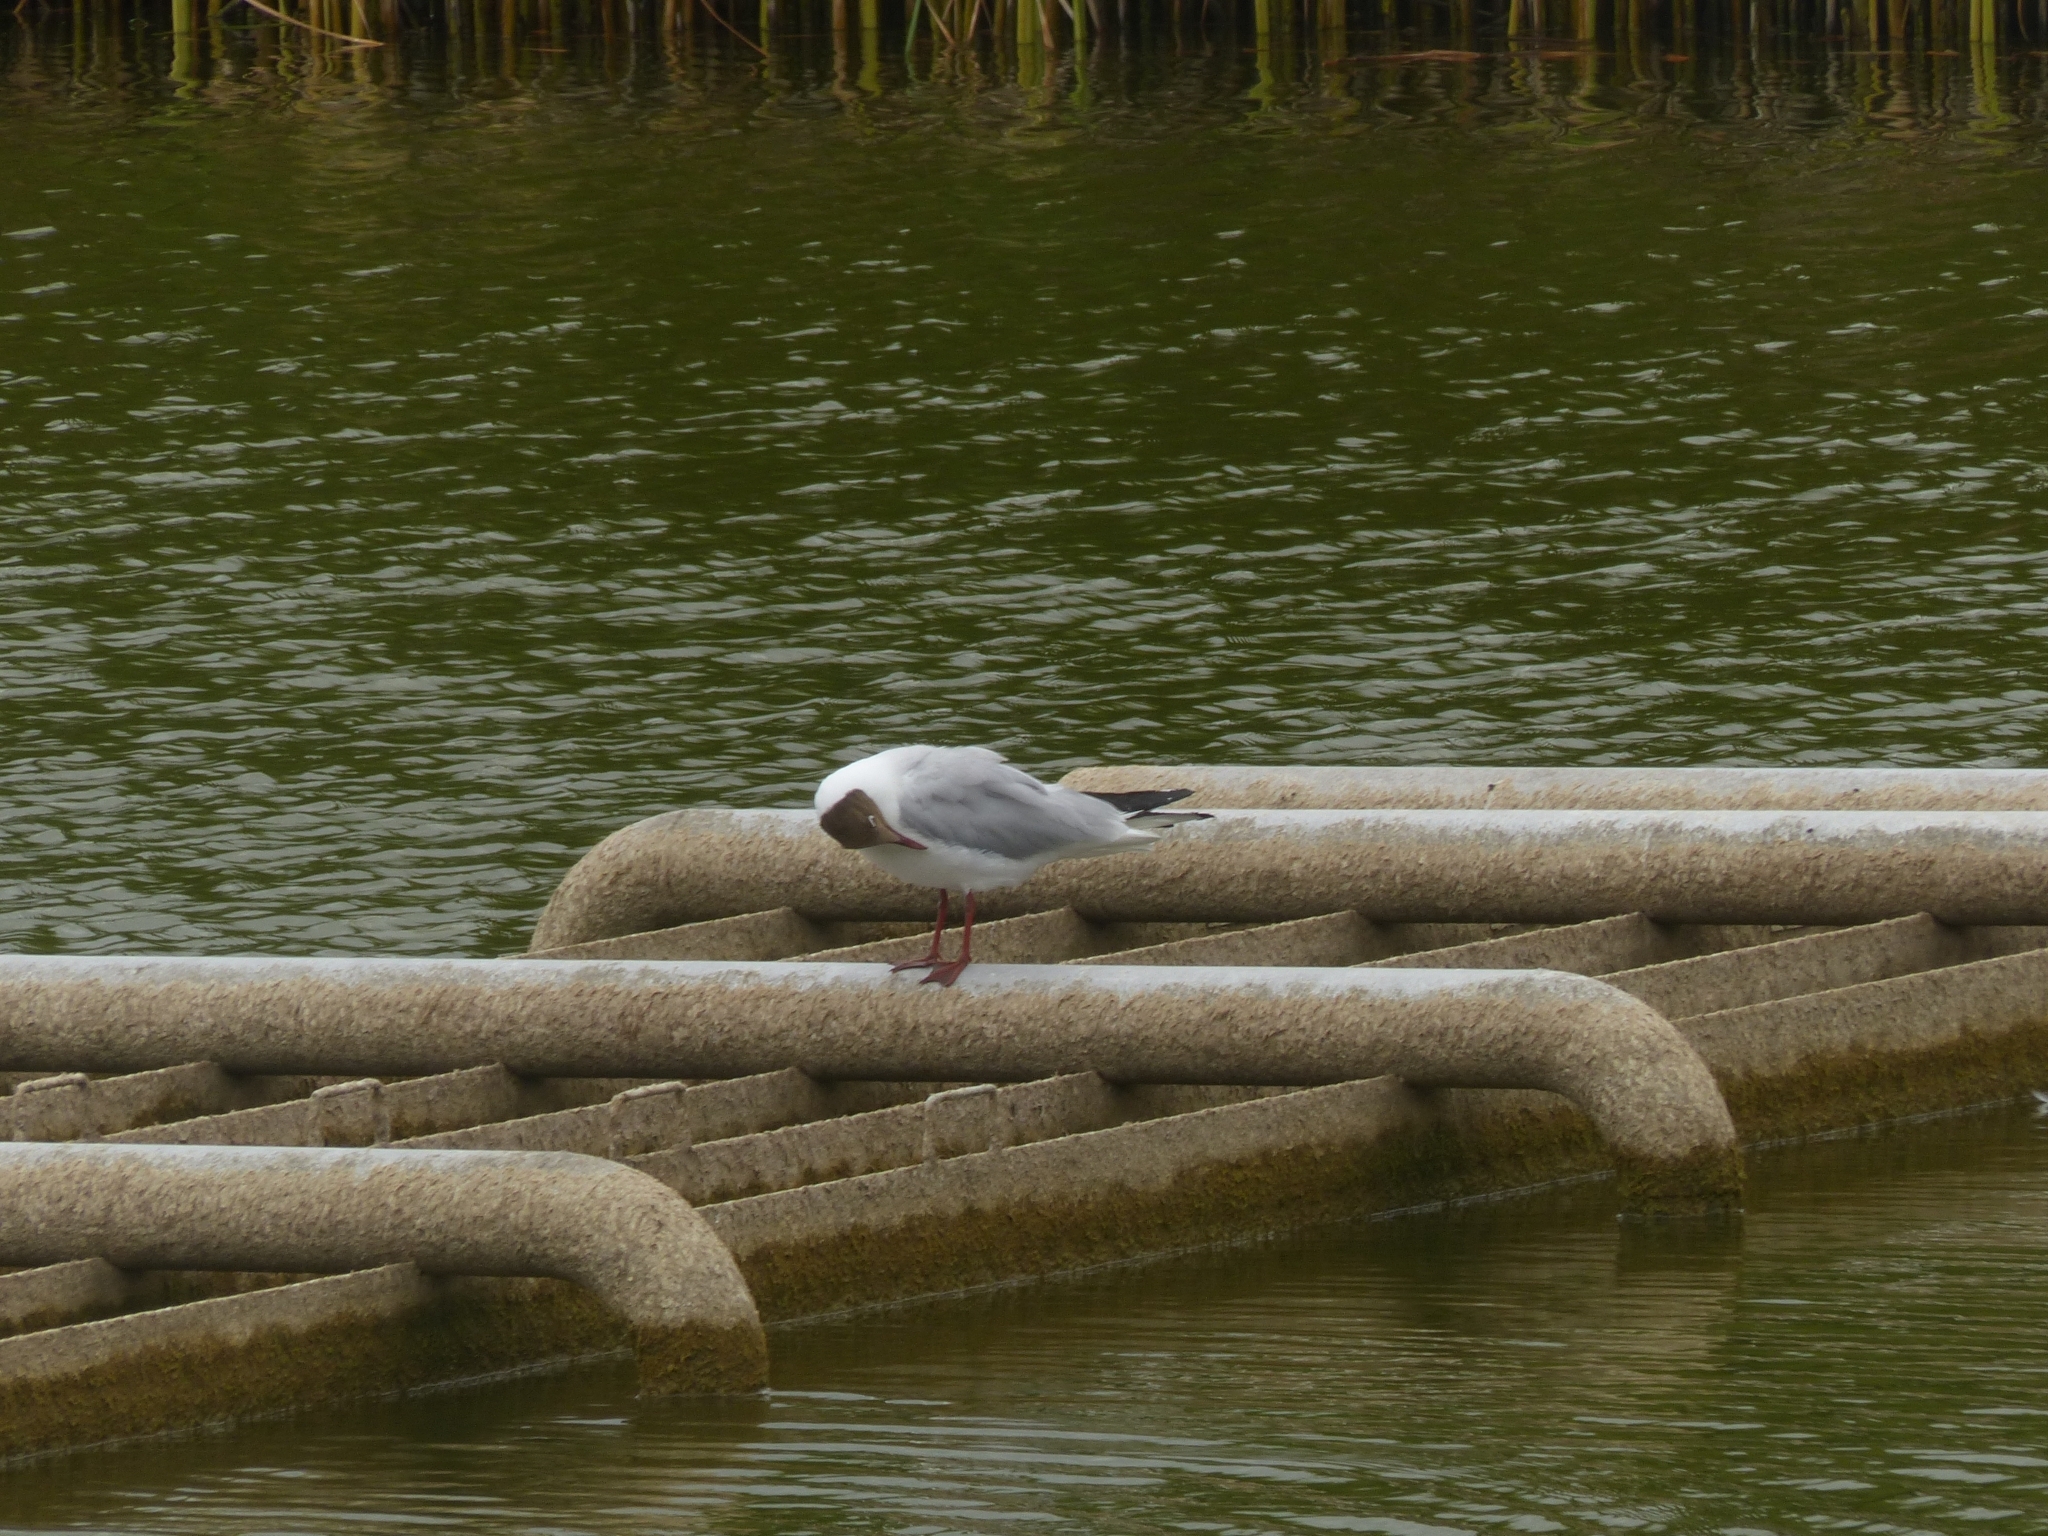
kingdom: Animalia
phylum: Chordata
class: Aves
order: Charadriiformes
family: Laridae
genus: Chroicocephalus
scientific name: Chroicocephalus ridibundus
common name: Black-headed gull
